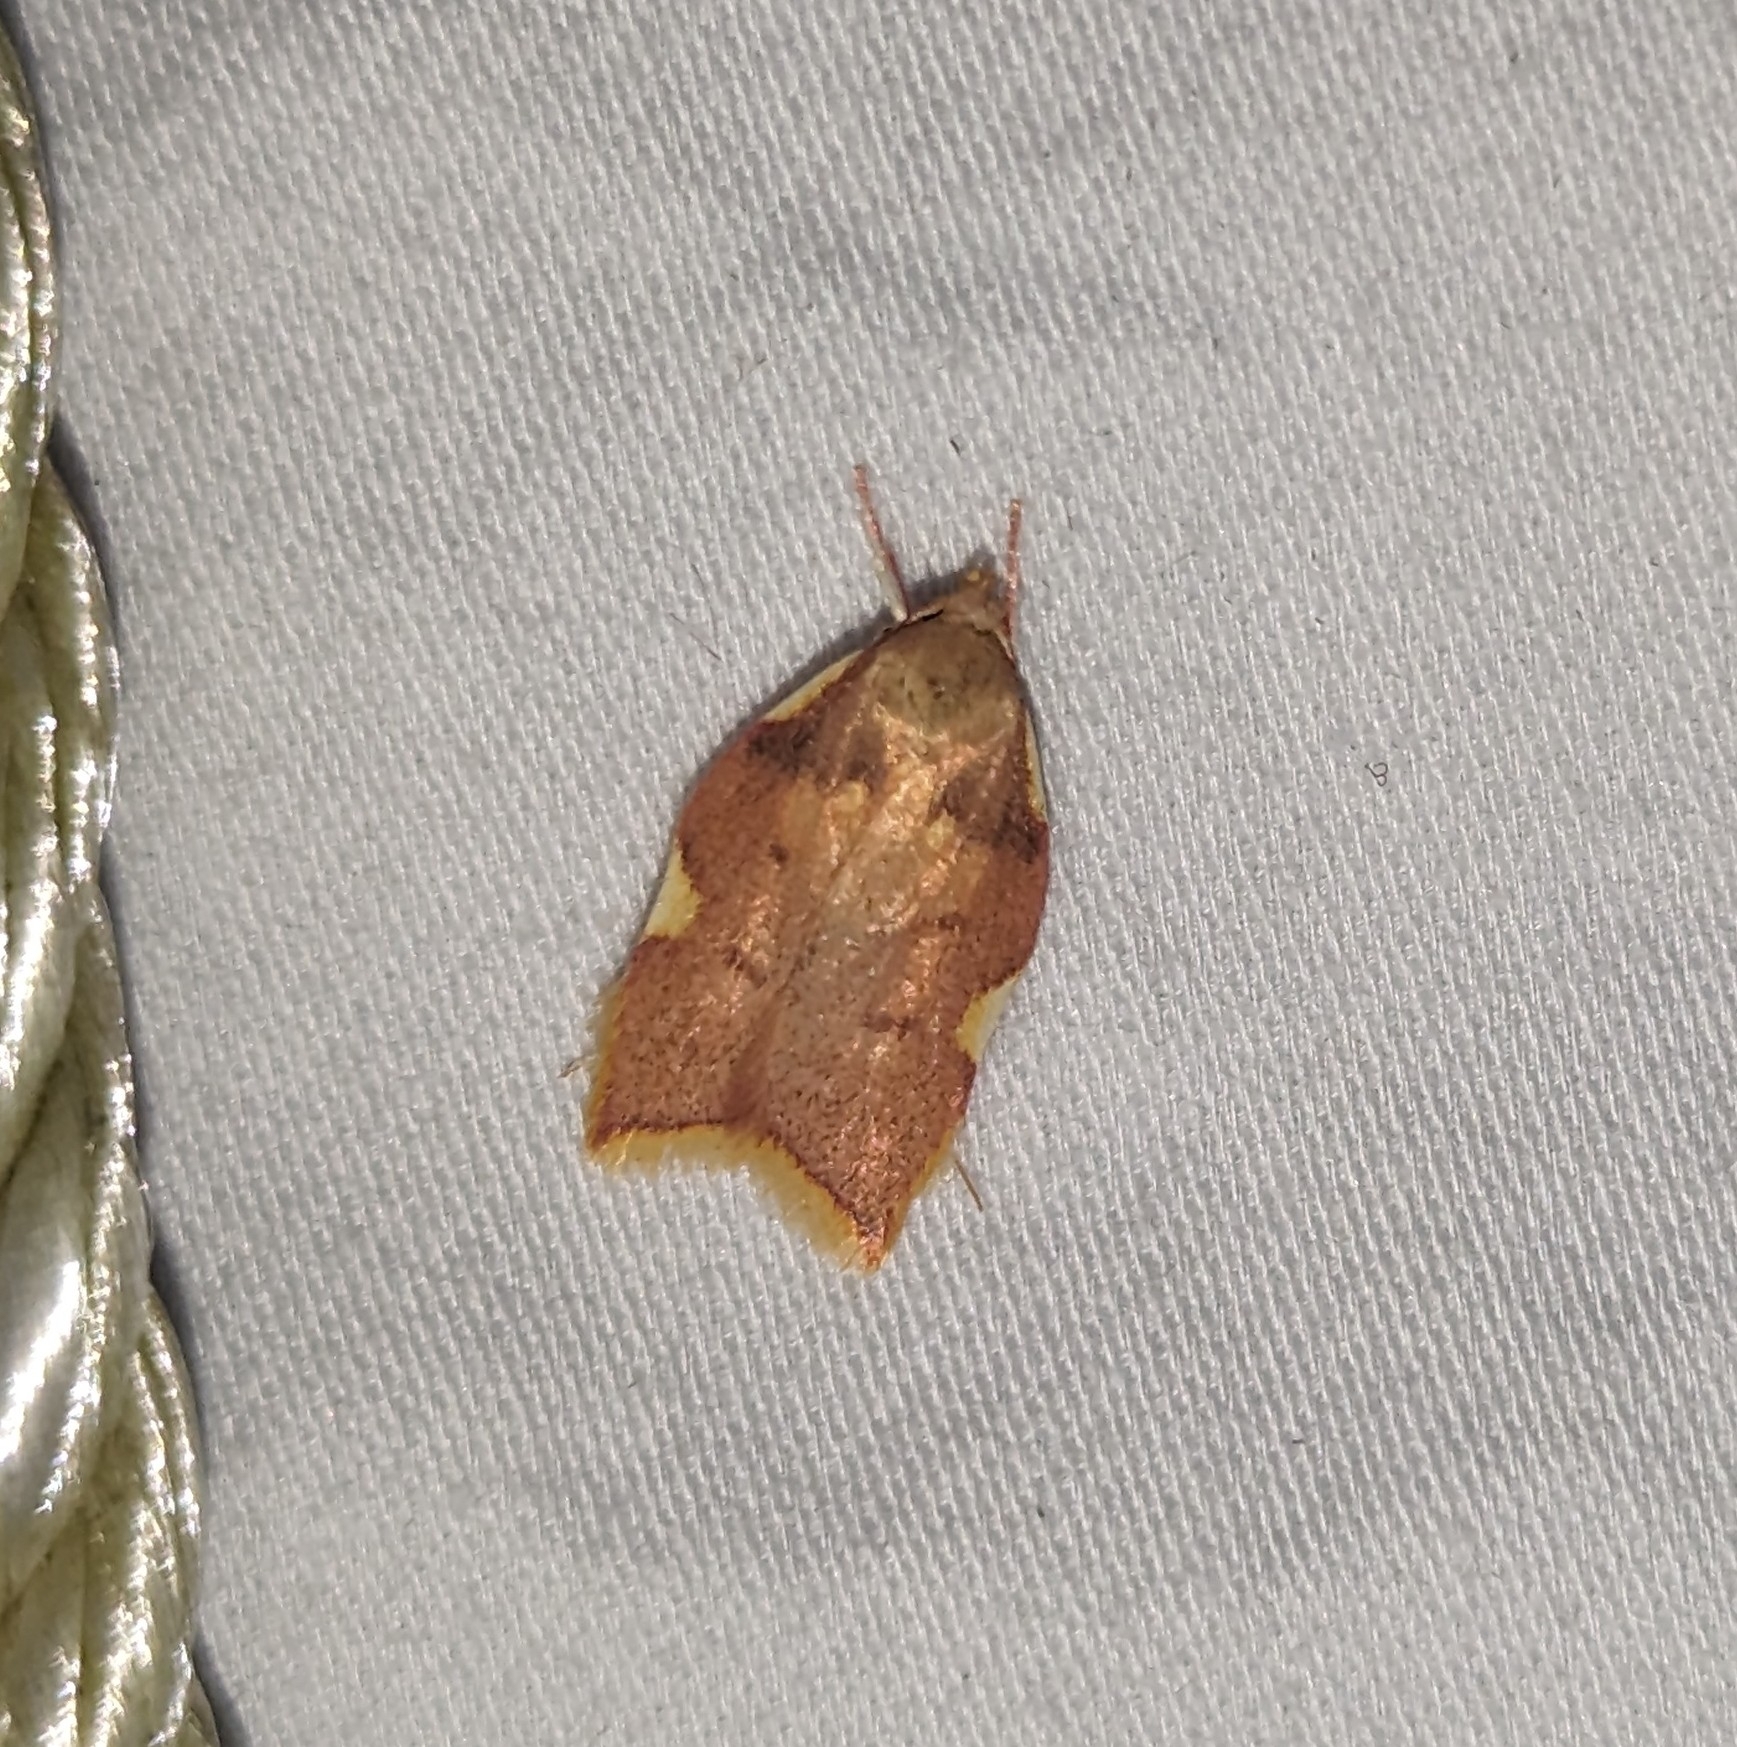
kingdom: Animalia
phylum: Arthropoda
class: Insecta
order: Lepidoptera
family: Peleopodidae
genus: Carcina
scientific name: Carcina quercana
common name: Moth
